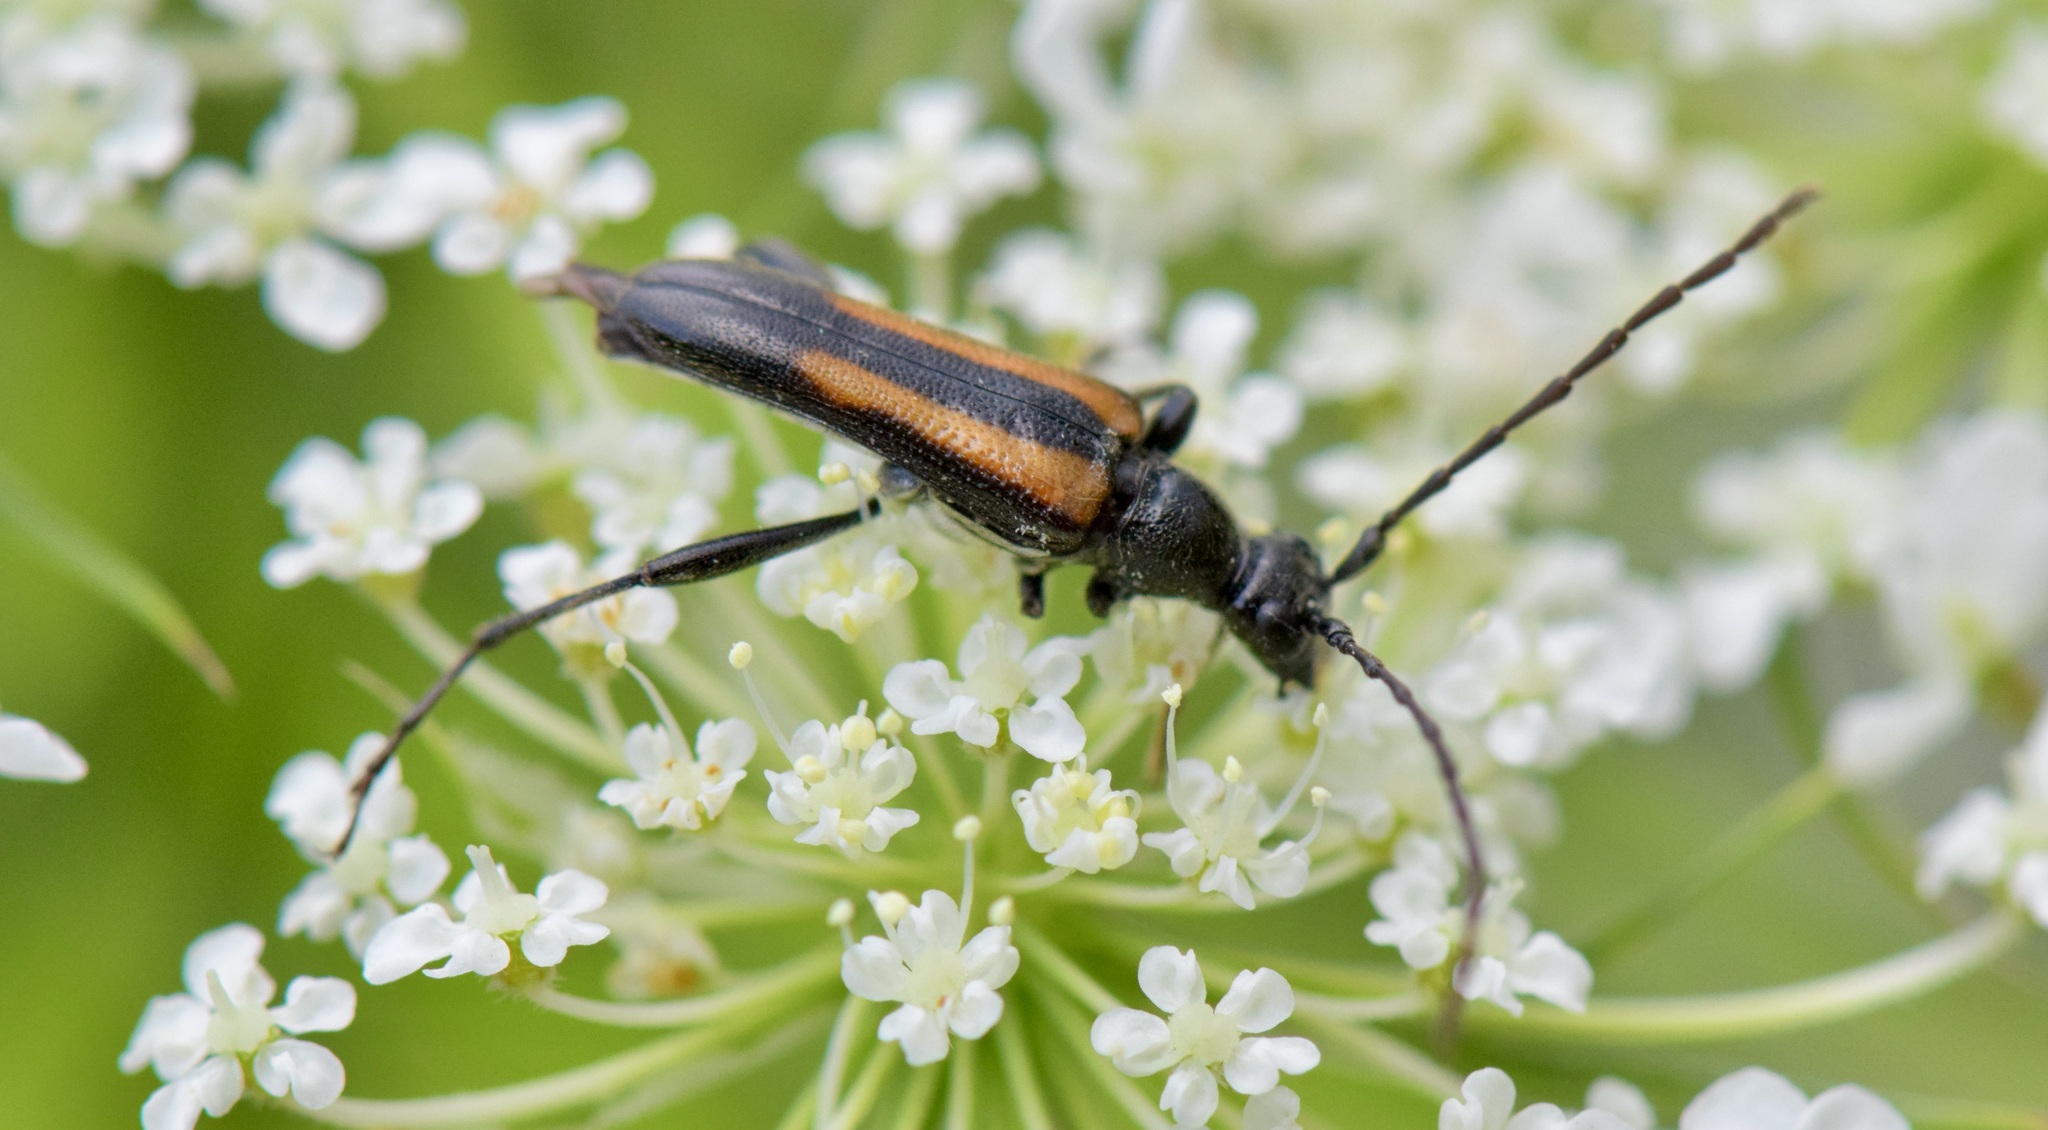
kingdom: Animalia
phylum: Arthropoda
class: Insecta
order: Coleoptera
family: Cerambycidae
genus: Strangalepta
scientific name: Strangalepta abbreviata
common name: Strangalepta flower longhorn beetle
